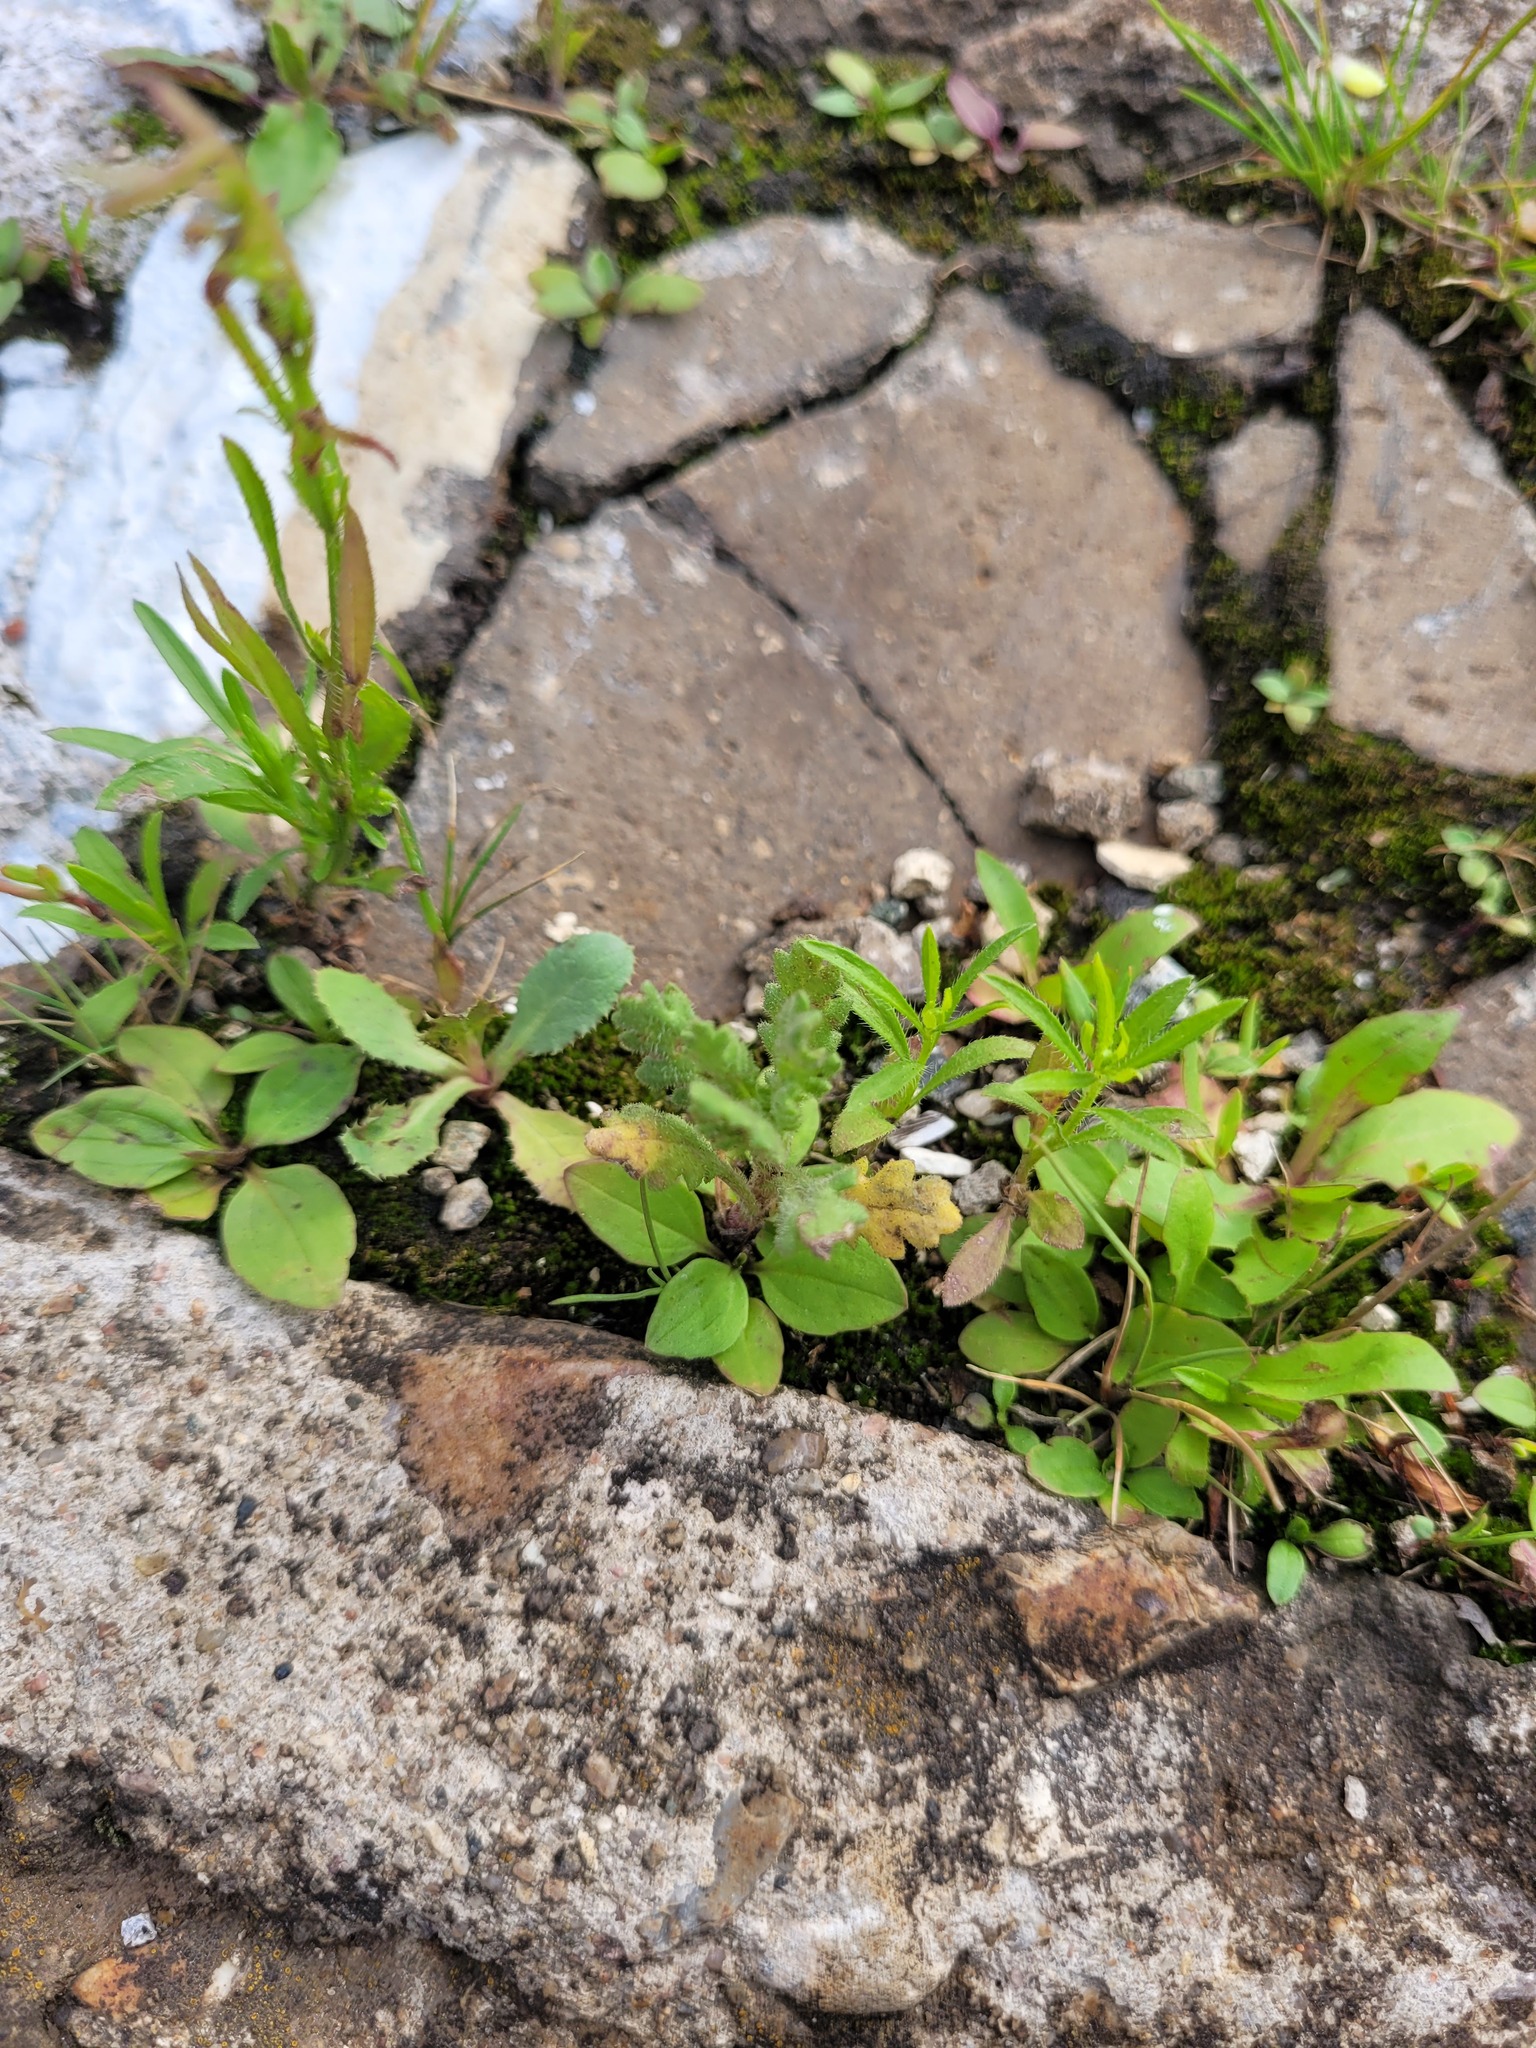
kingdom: Plantae
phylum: Tracheophyta
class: Magnoliopsida
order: Asterales
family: Asteraceae
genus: Senecio
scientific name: Senecio viscosus
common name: Sticky groundsel
